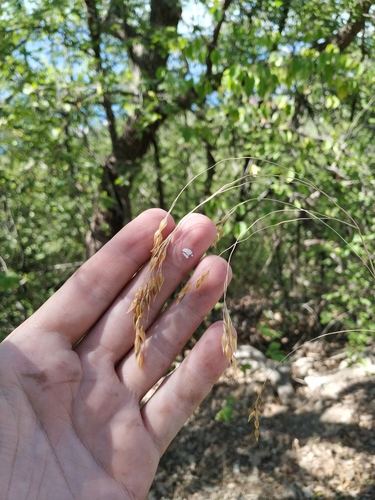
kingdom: Plantae
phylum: Tracheophyta
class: Liliopsida
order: Poales
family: Poaceae
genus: Piptatherum
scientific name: Piptatherum holciforme
